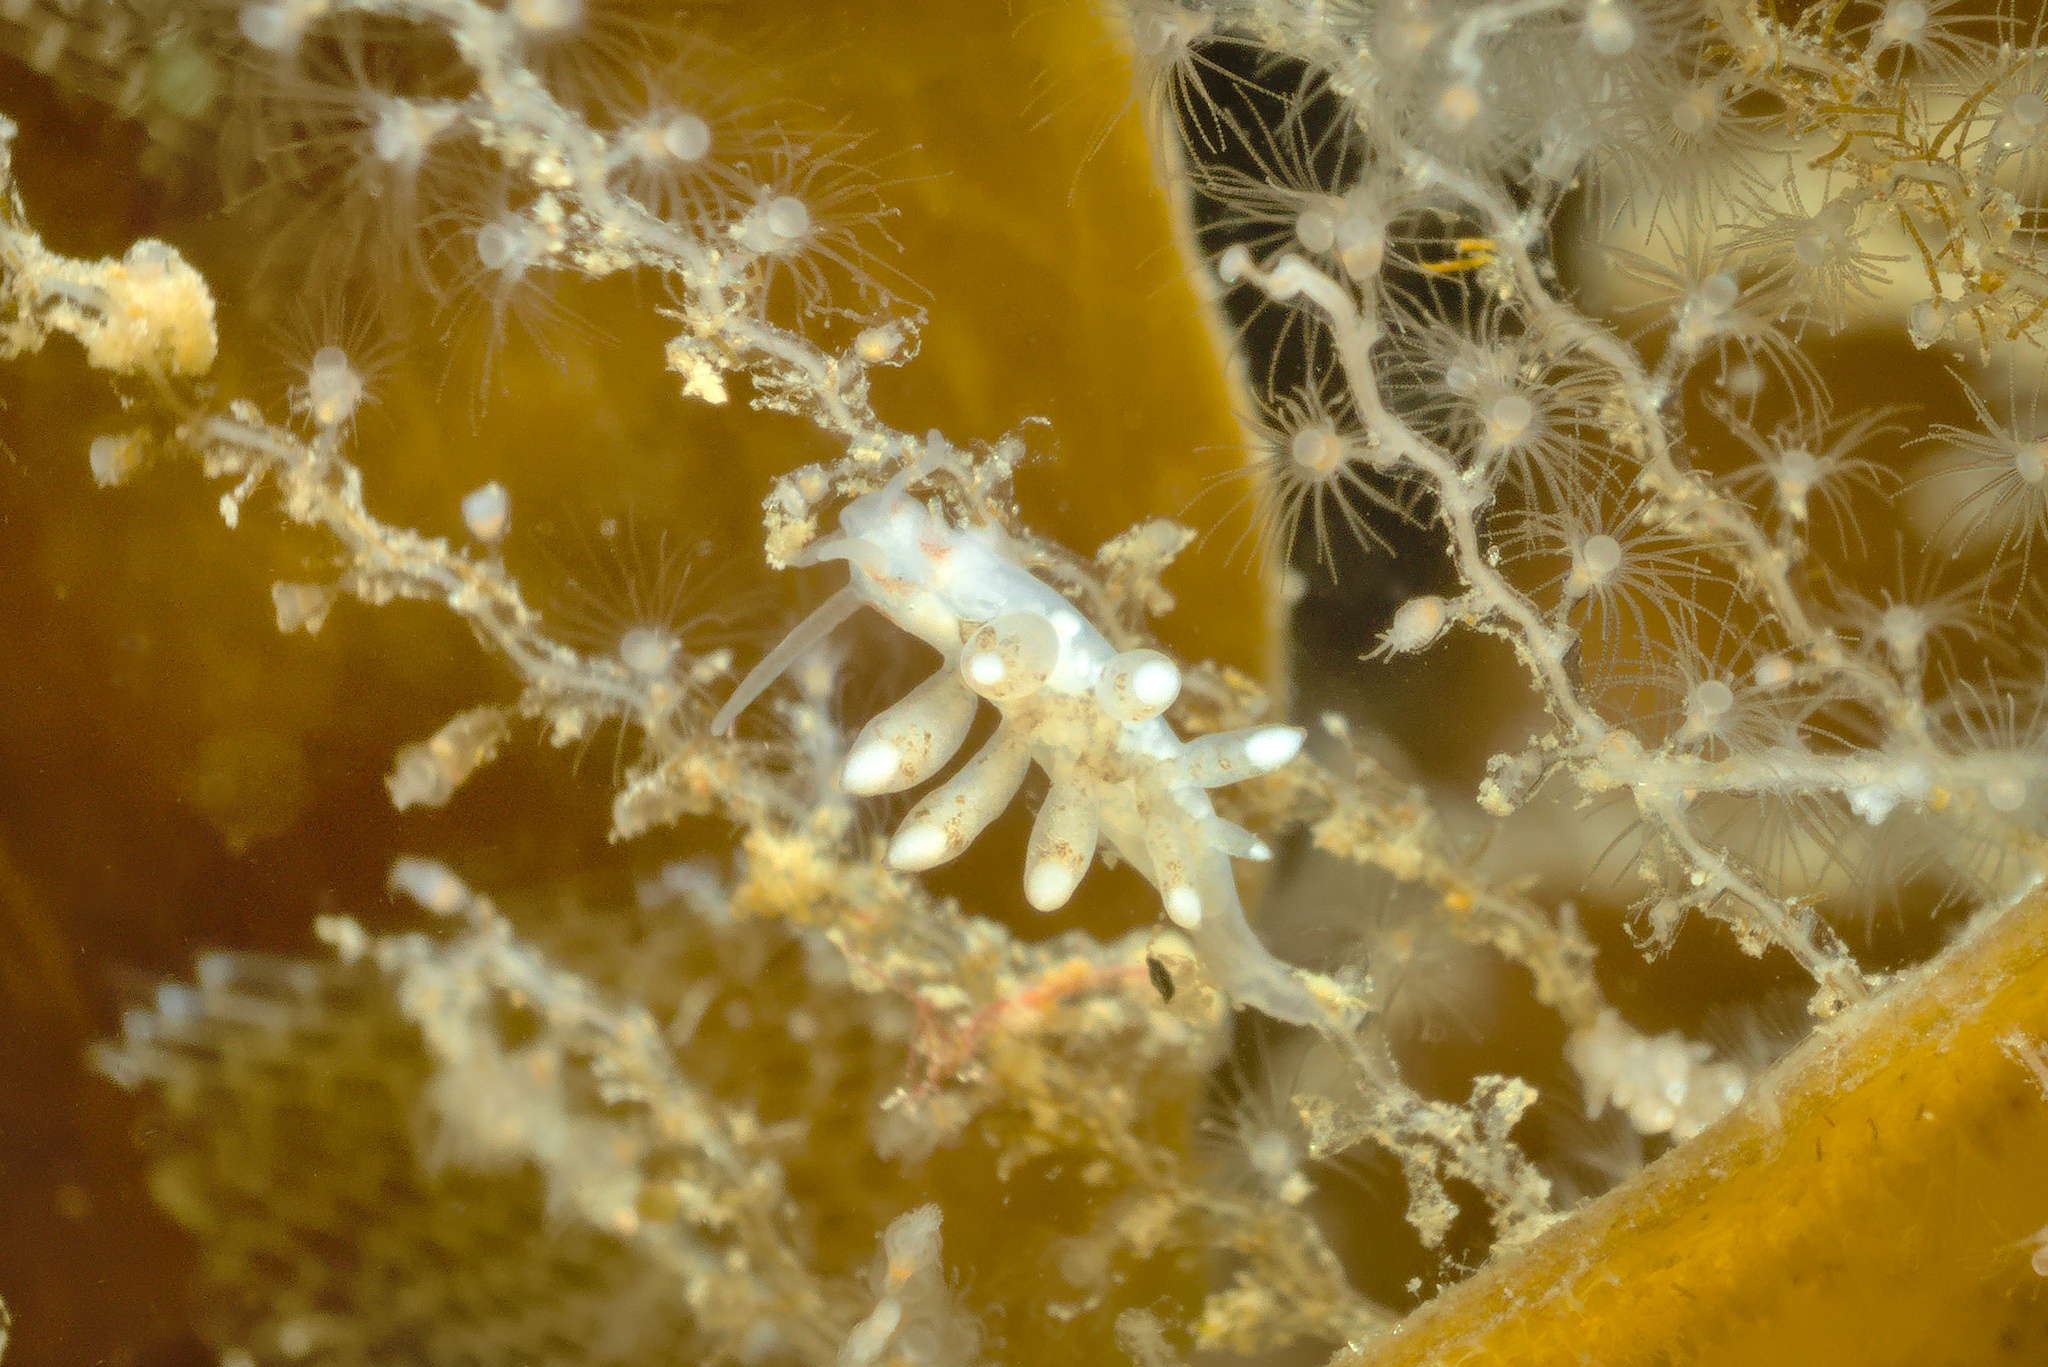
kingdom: Animalia
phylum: Mollusca
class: Gastropoda
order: Nudibranchia
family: Tergipedidae
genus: Tergipes
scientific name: Tergipes tergipes
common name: Johnston's balloon eolis
